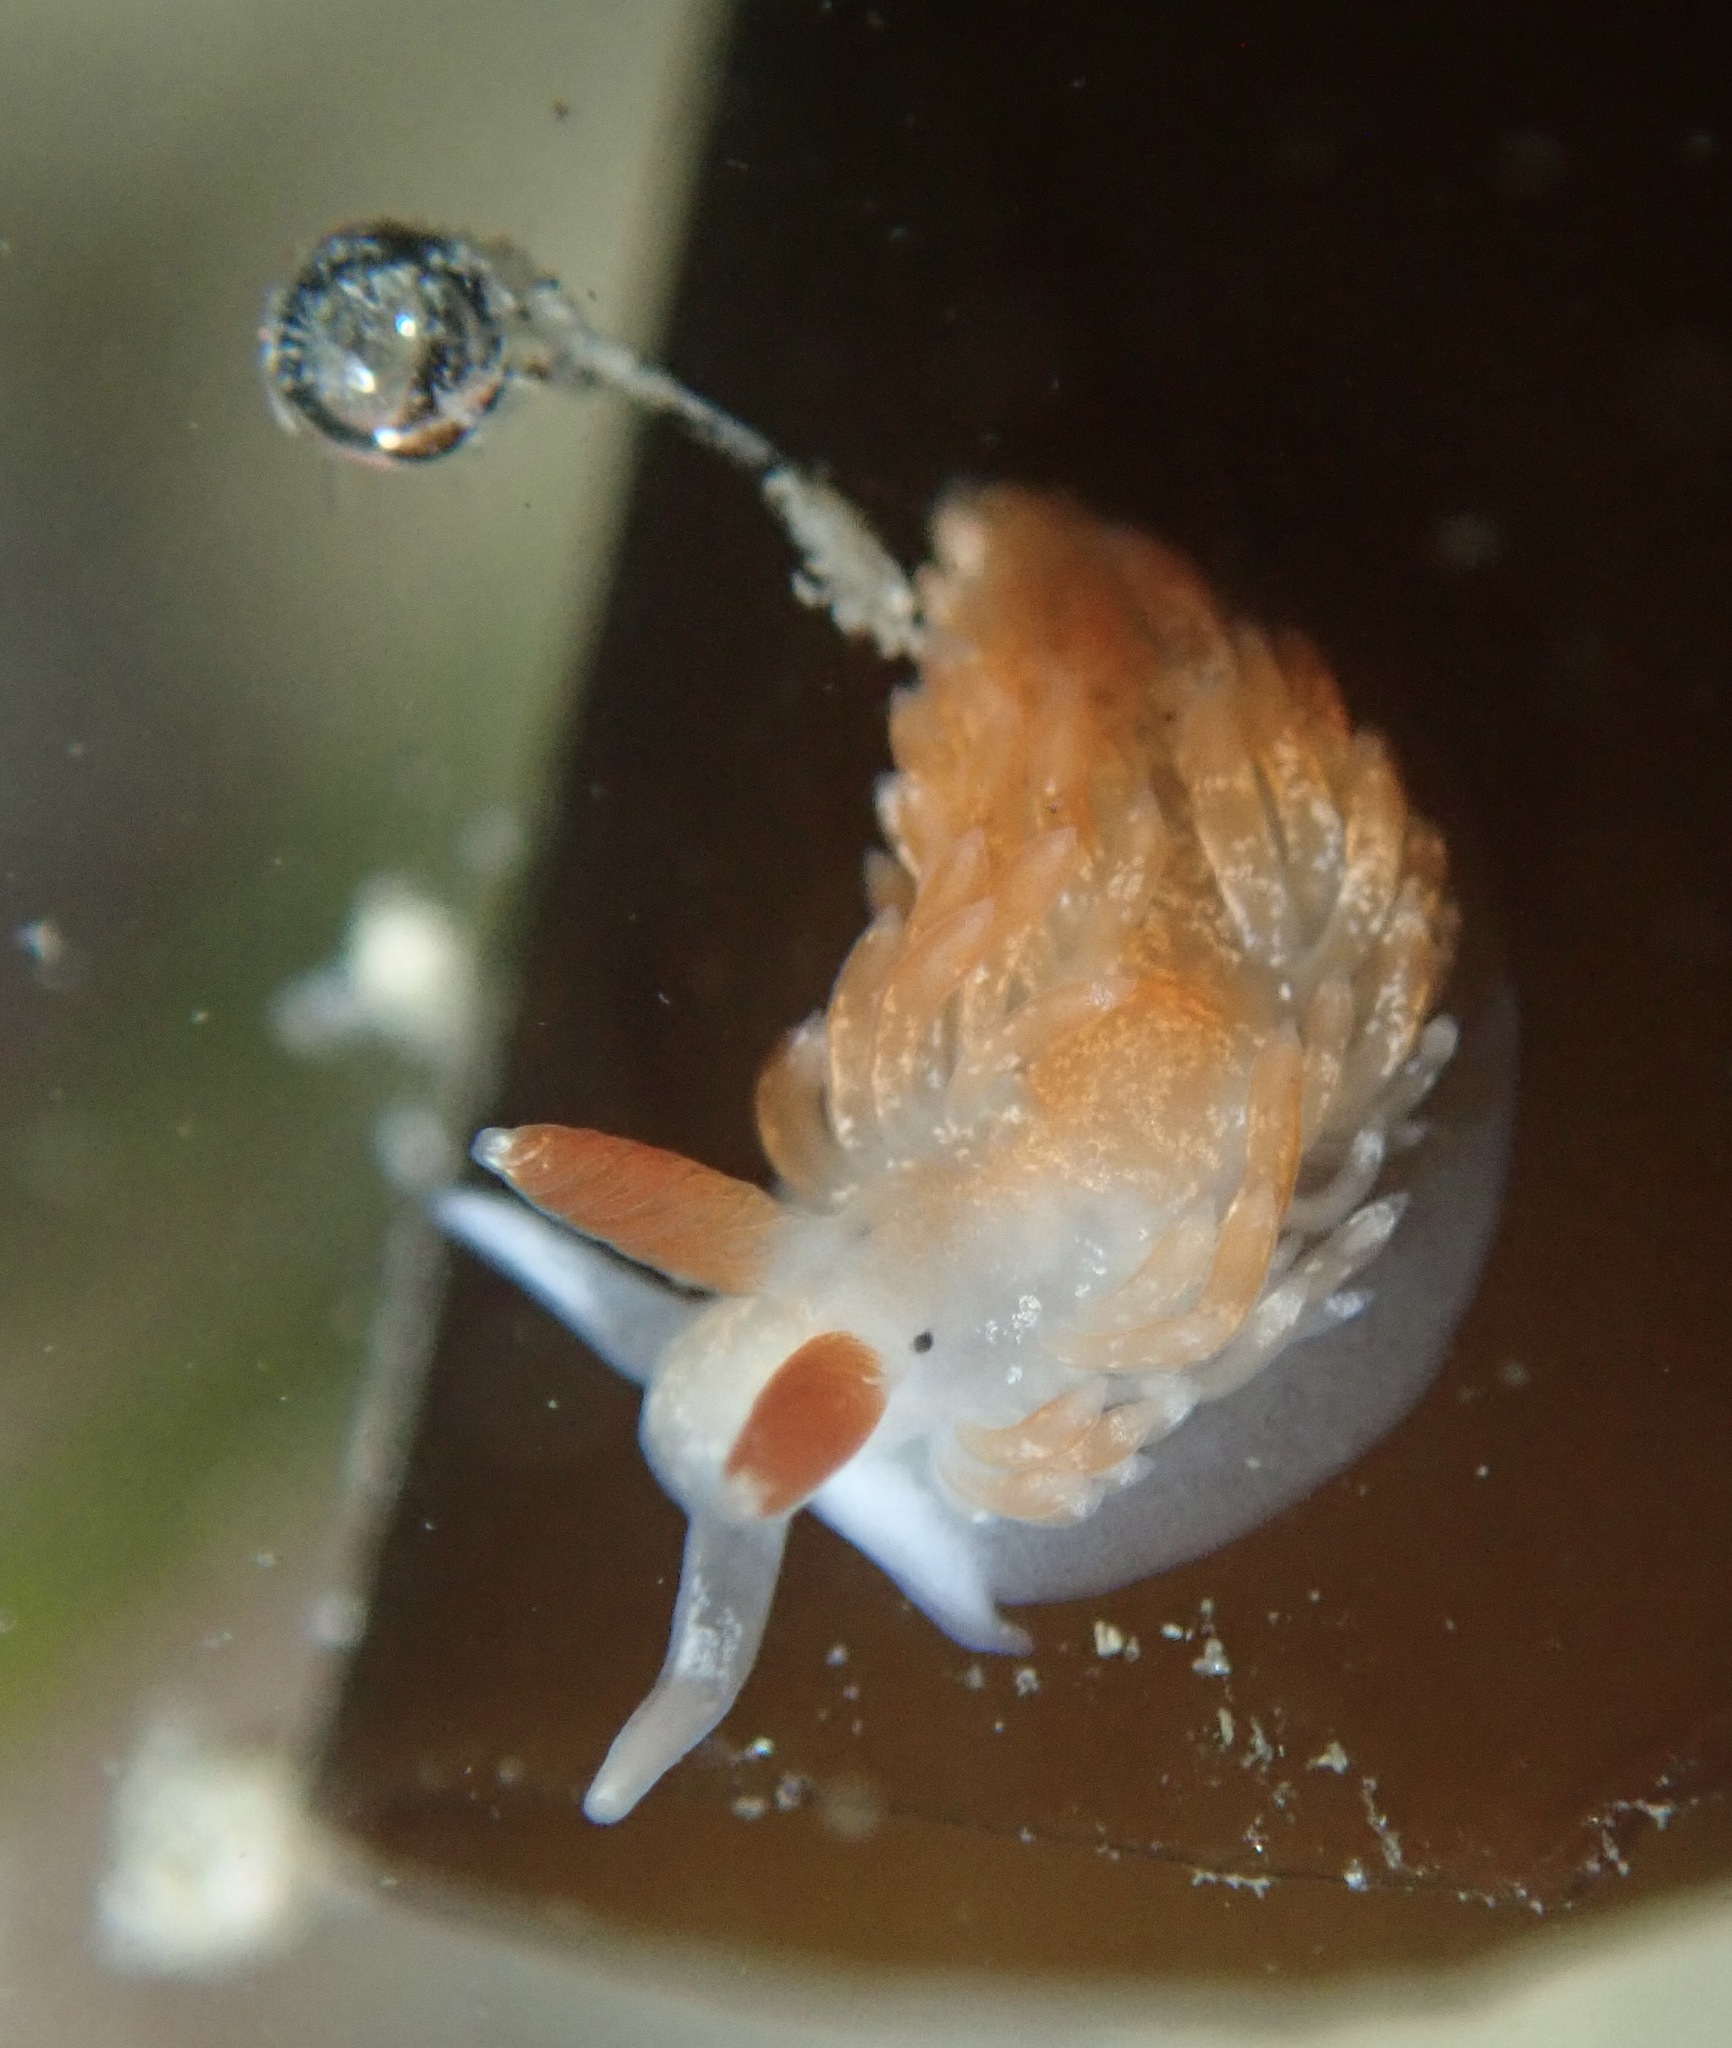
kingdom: Animalia
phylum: Mollusca
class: Gastropoda
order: Nudibranchia
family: Aeolidiidae
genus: Anteaeolidiella
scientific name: Anteaeolidiella oliviae
